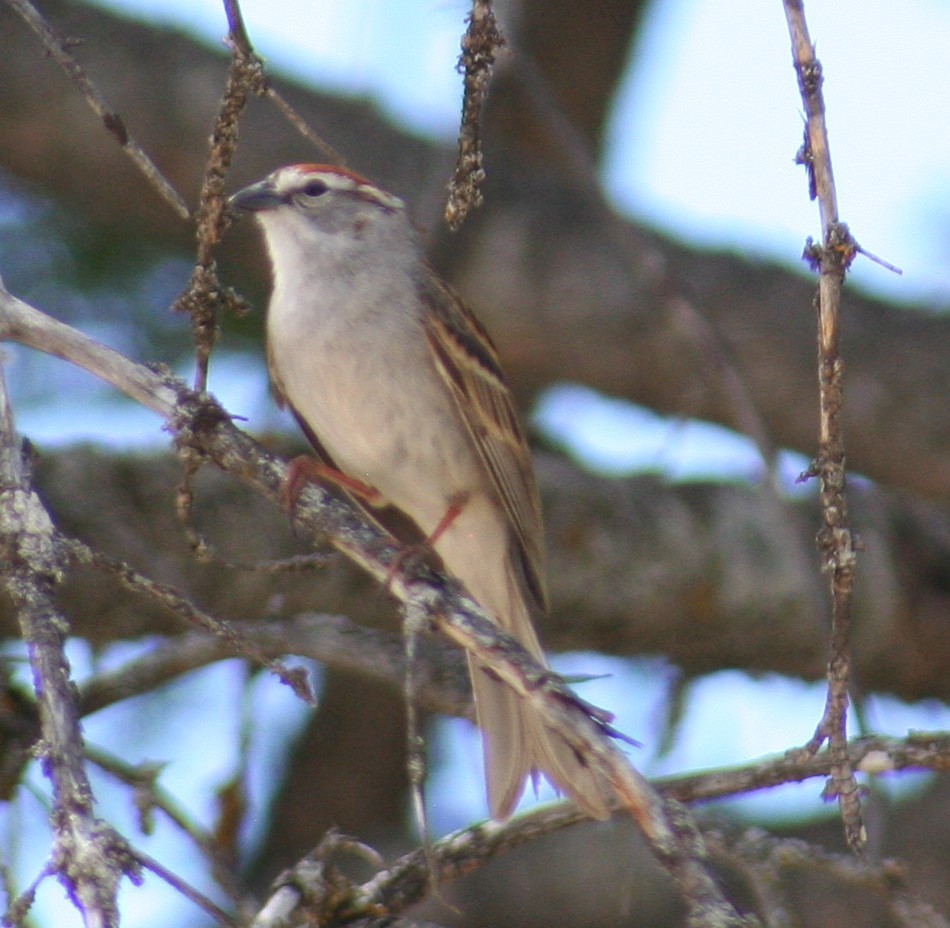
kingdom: Animalia
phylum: Chordata
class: Aves
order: Passeriformes
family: Passerellidae
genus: Spizella
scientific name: Spizella passerina
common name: Chipping sparrow
